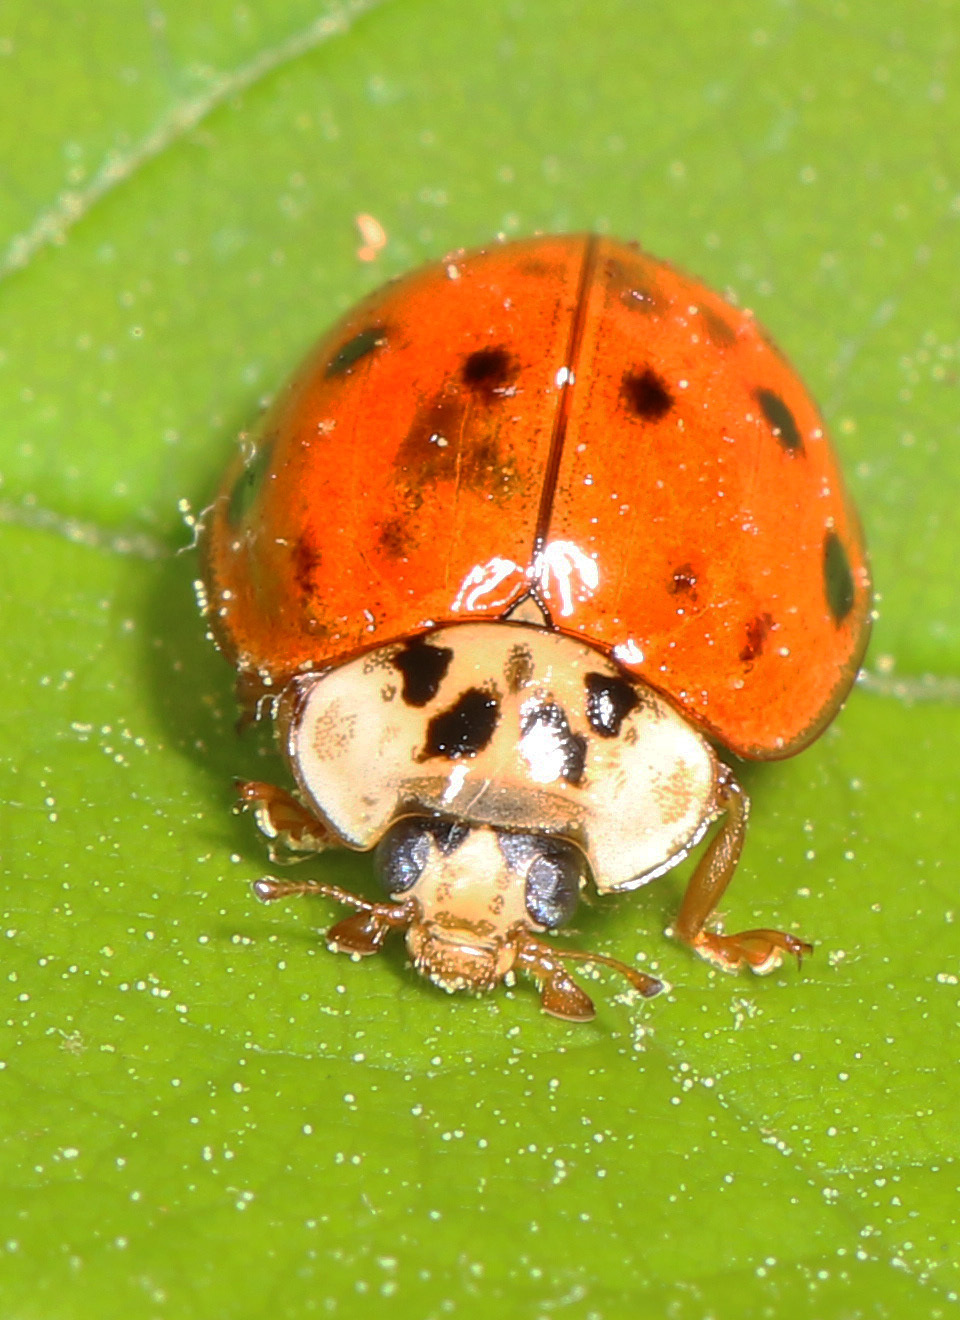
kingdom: Animalia
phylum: Arthropoda
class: Insecta
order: Coleoptera
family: Coccinellidae
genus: Harmonia
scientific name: Harmonia axyridis
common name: Harlequin ladybird
